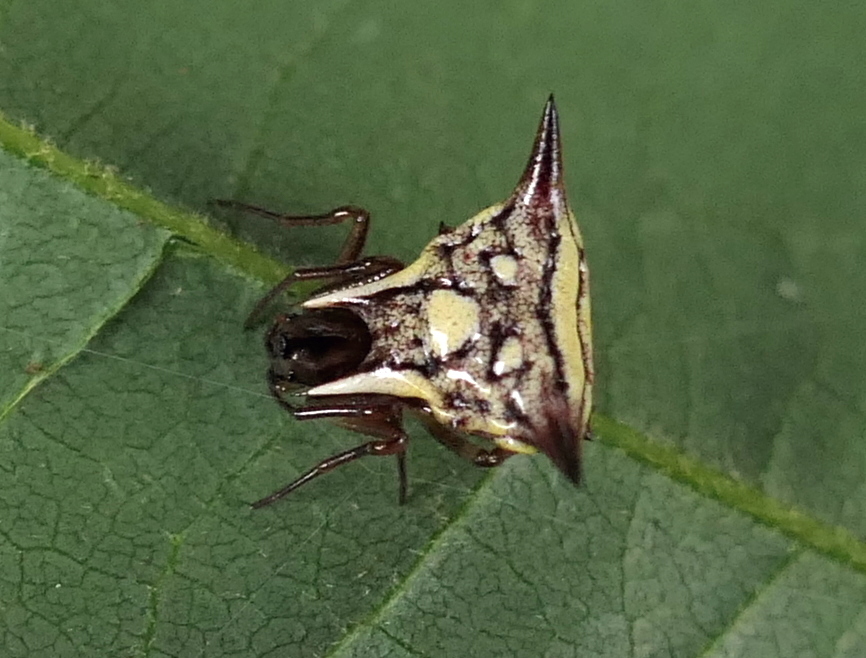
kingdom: Animalia
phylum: Arthropoda
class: Arachnida
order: Araneae
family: Araneidae
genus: Micrathena
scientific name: Micrathena evansi
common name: Orb weavers
